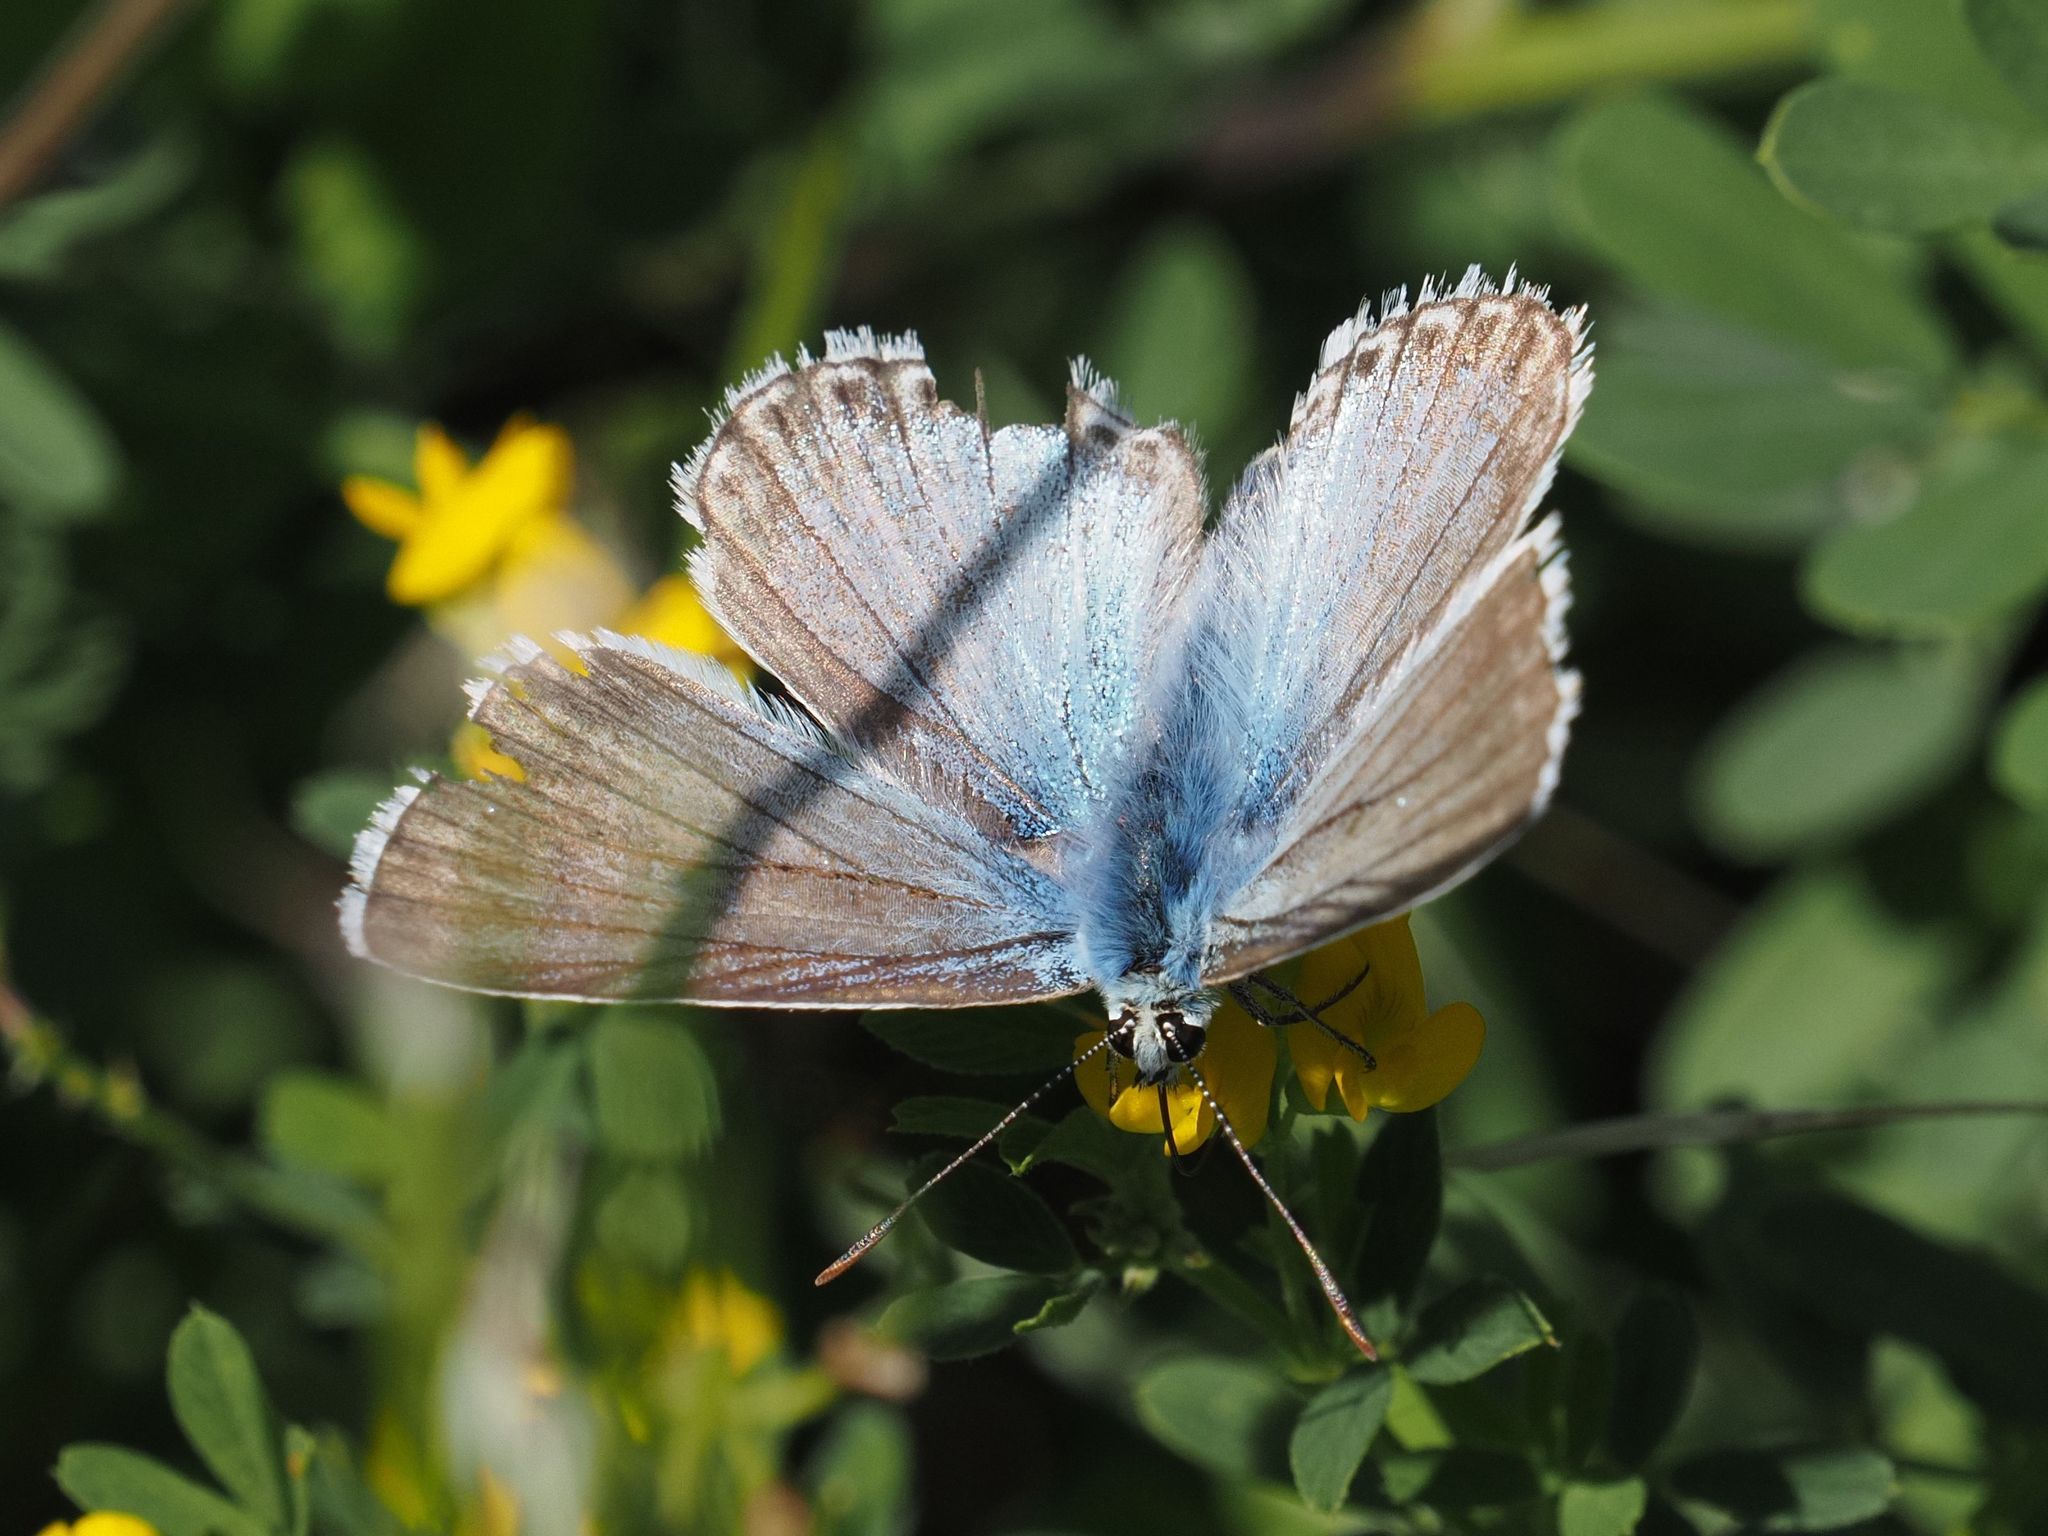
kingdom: Animalia
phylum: Arthropoda
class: Insecta
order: Lepidoptera
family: Lycaenidae
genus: Lysandra
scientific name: Lysandra coridon
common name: Chalkhill blue
